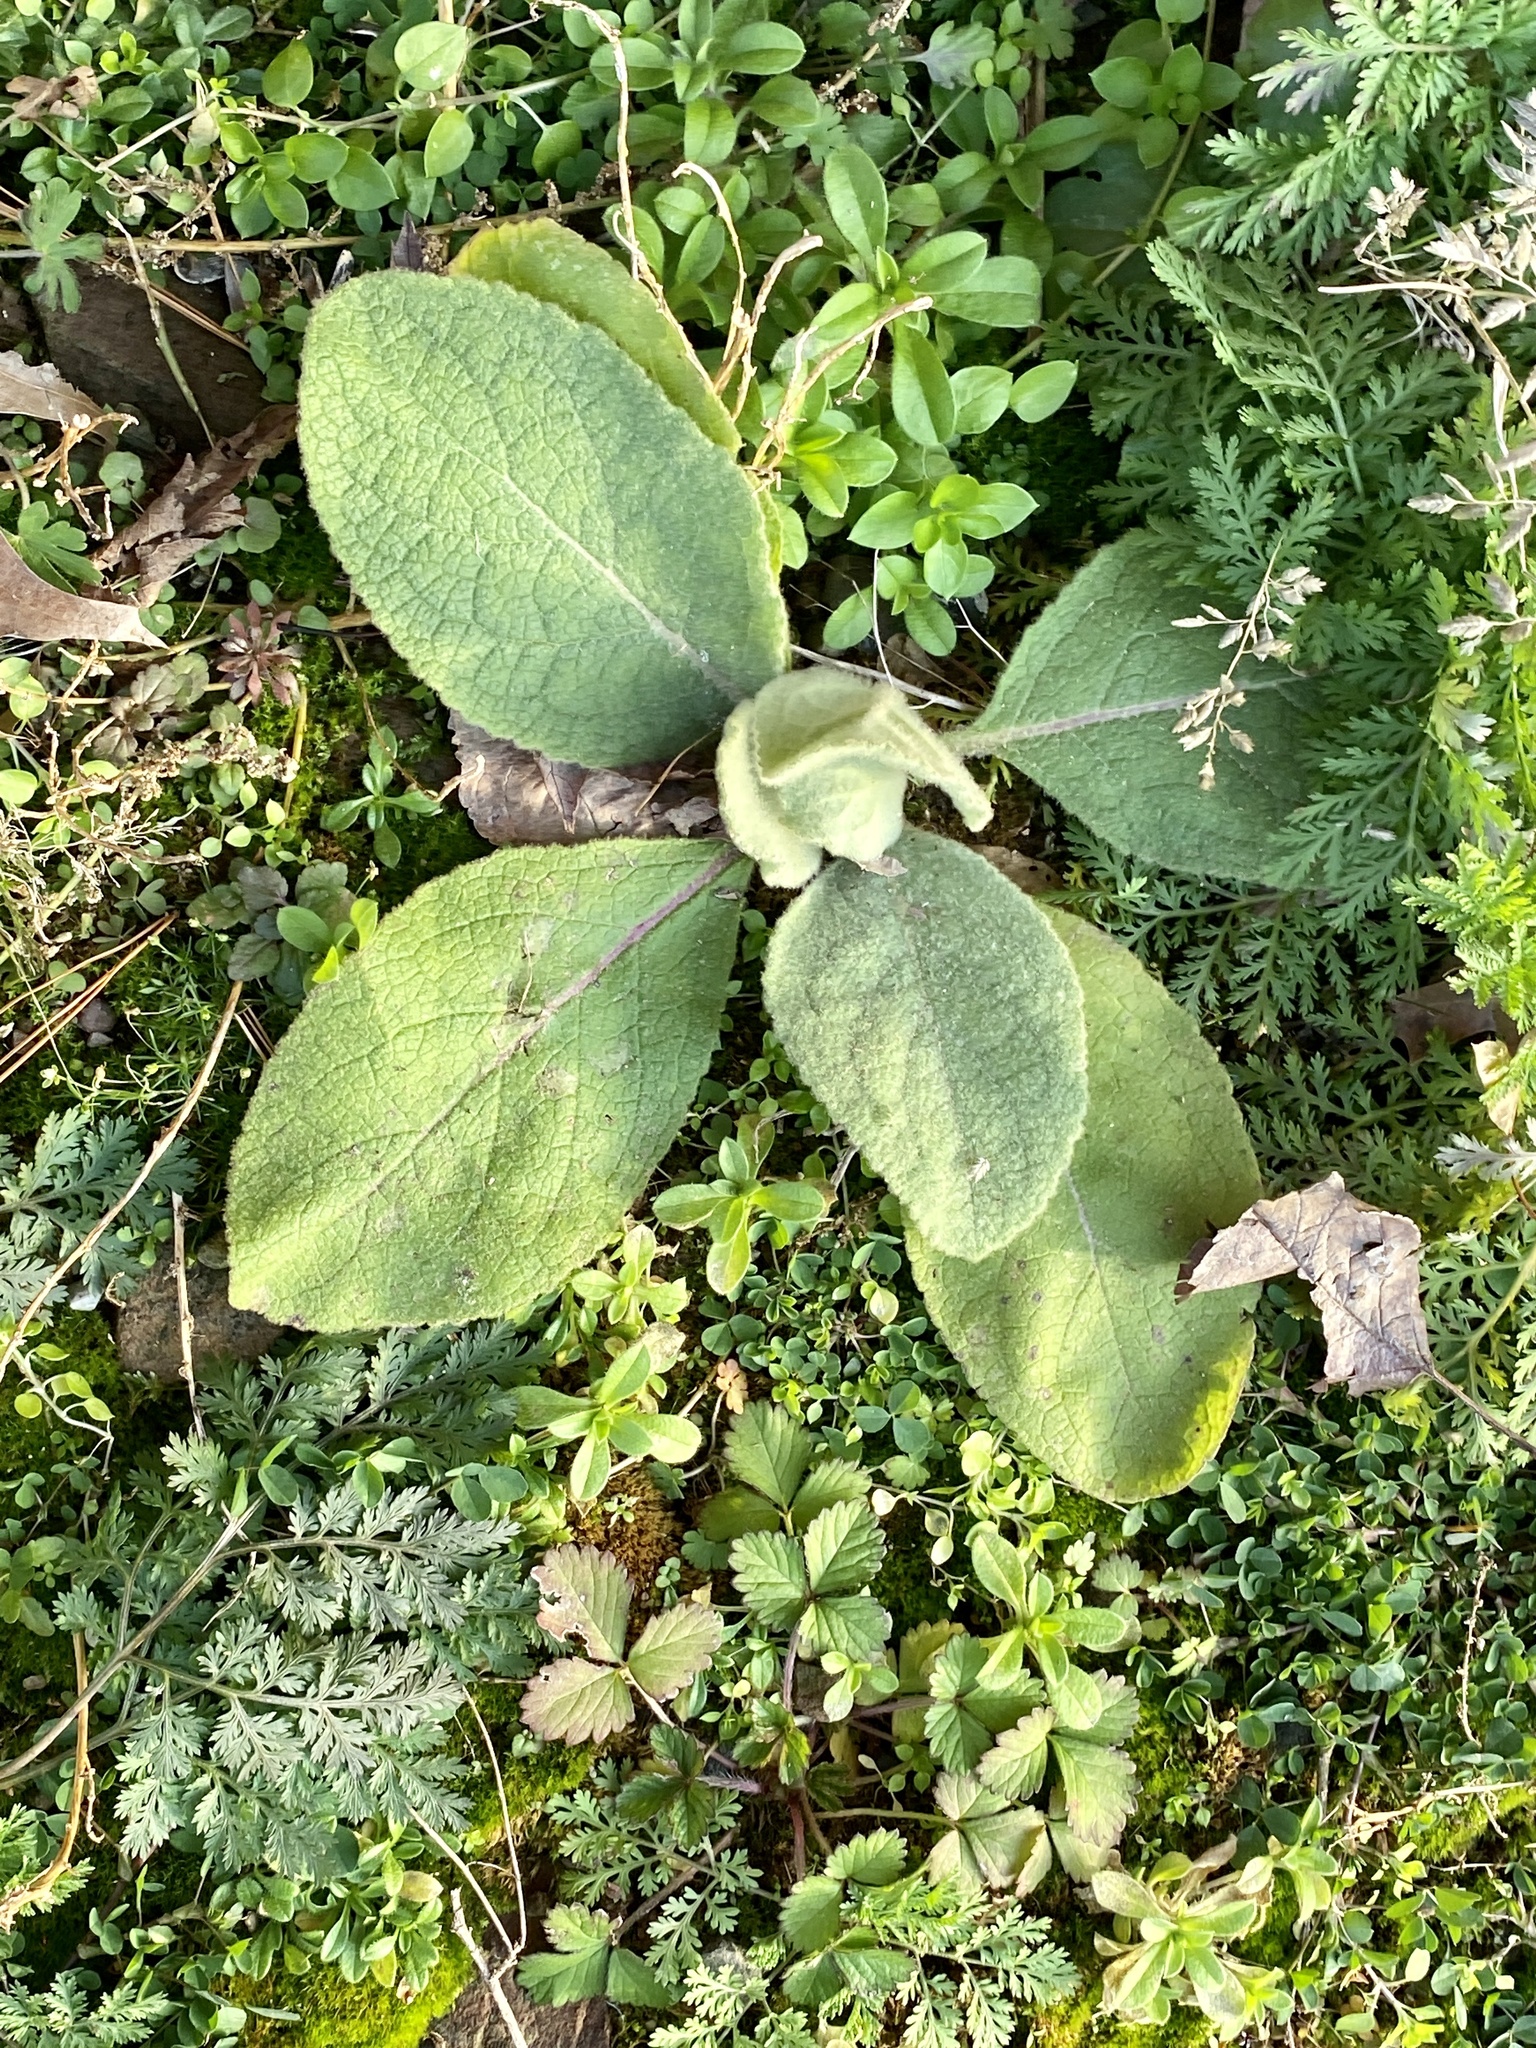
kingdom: Plantae
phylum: Tracheophyta
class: Magnoliopsida
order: Lamiales
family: Scrophulariaceae
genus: Verbascum
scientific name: Verbascum thapsus
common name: Common mullein
